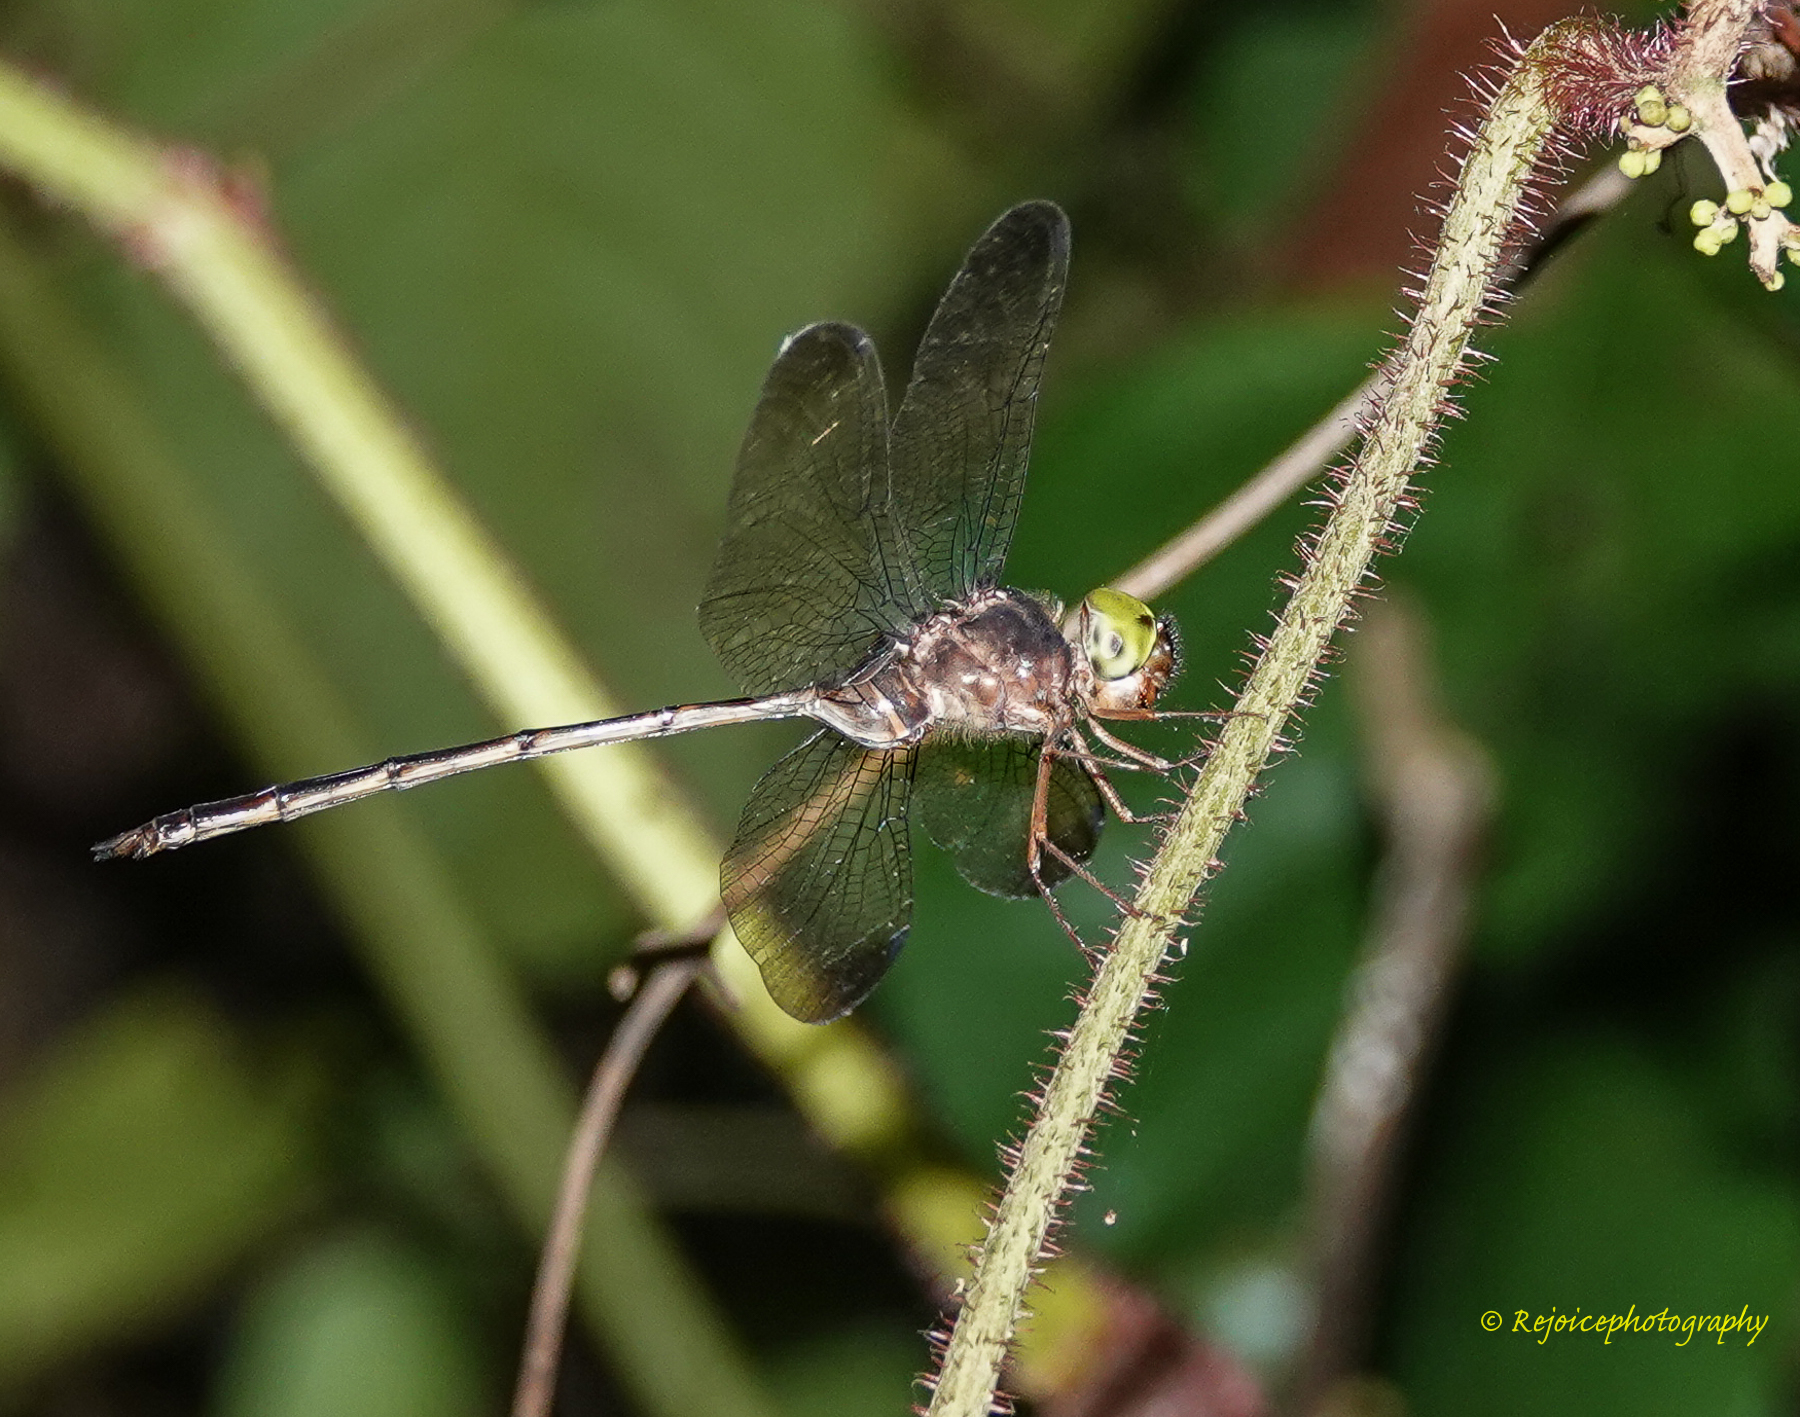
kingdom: Animalia
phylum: Arthropoda
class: Insecta
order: Odonata
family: Libellulidae
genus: Zyxomma
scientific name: Zyxomma petiolatum
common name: Dingy dusk-darter
